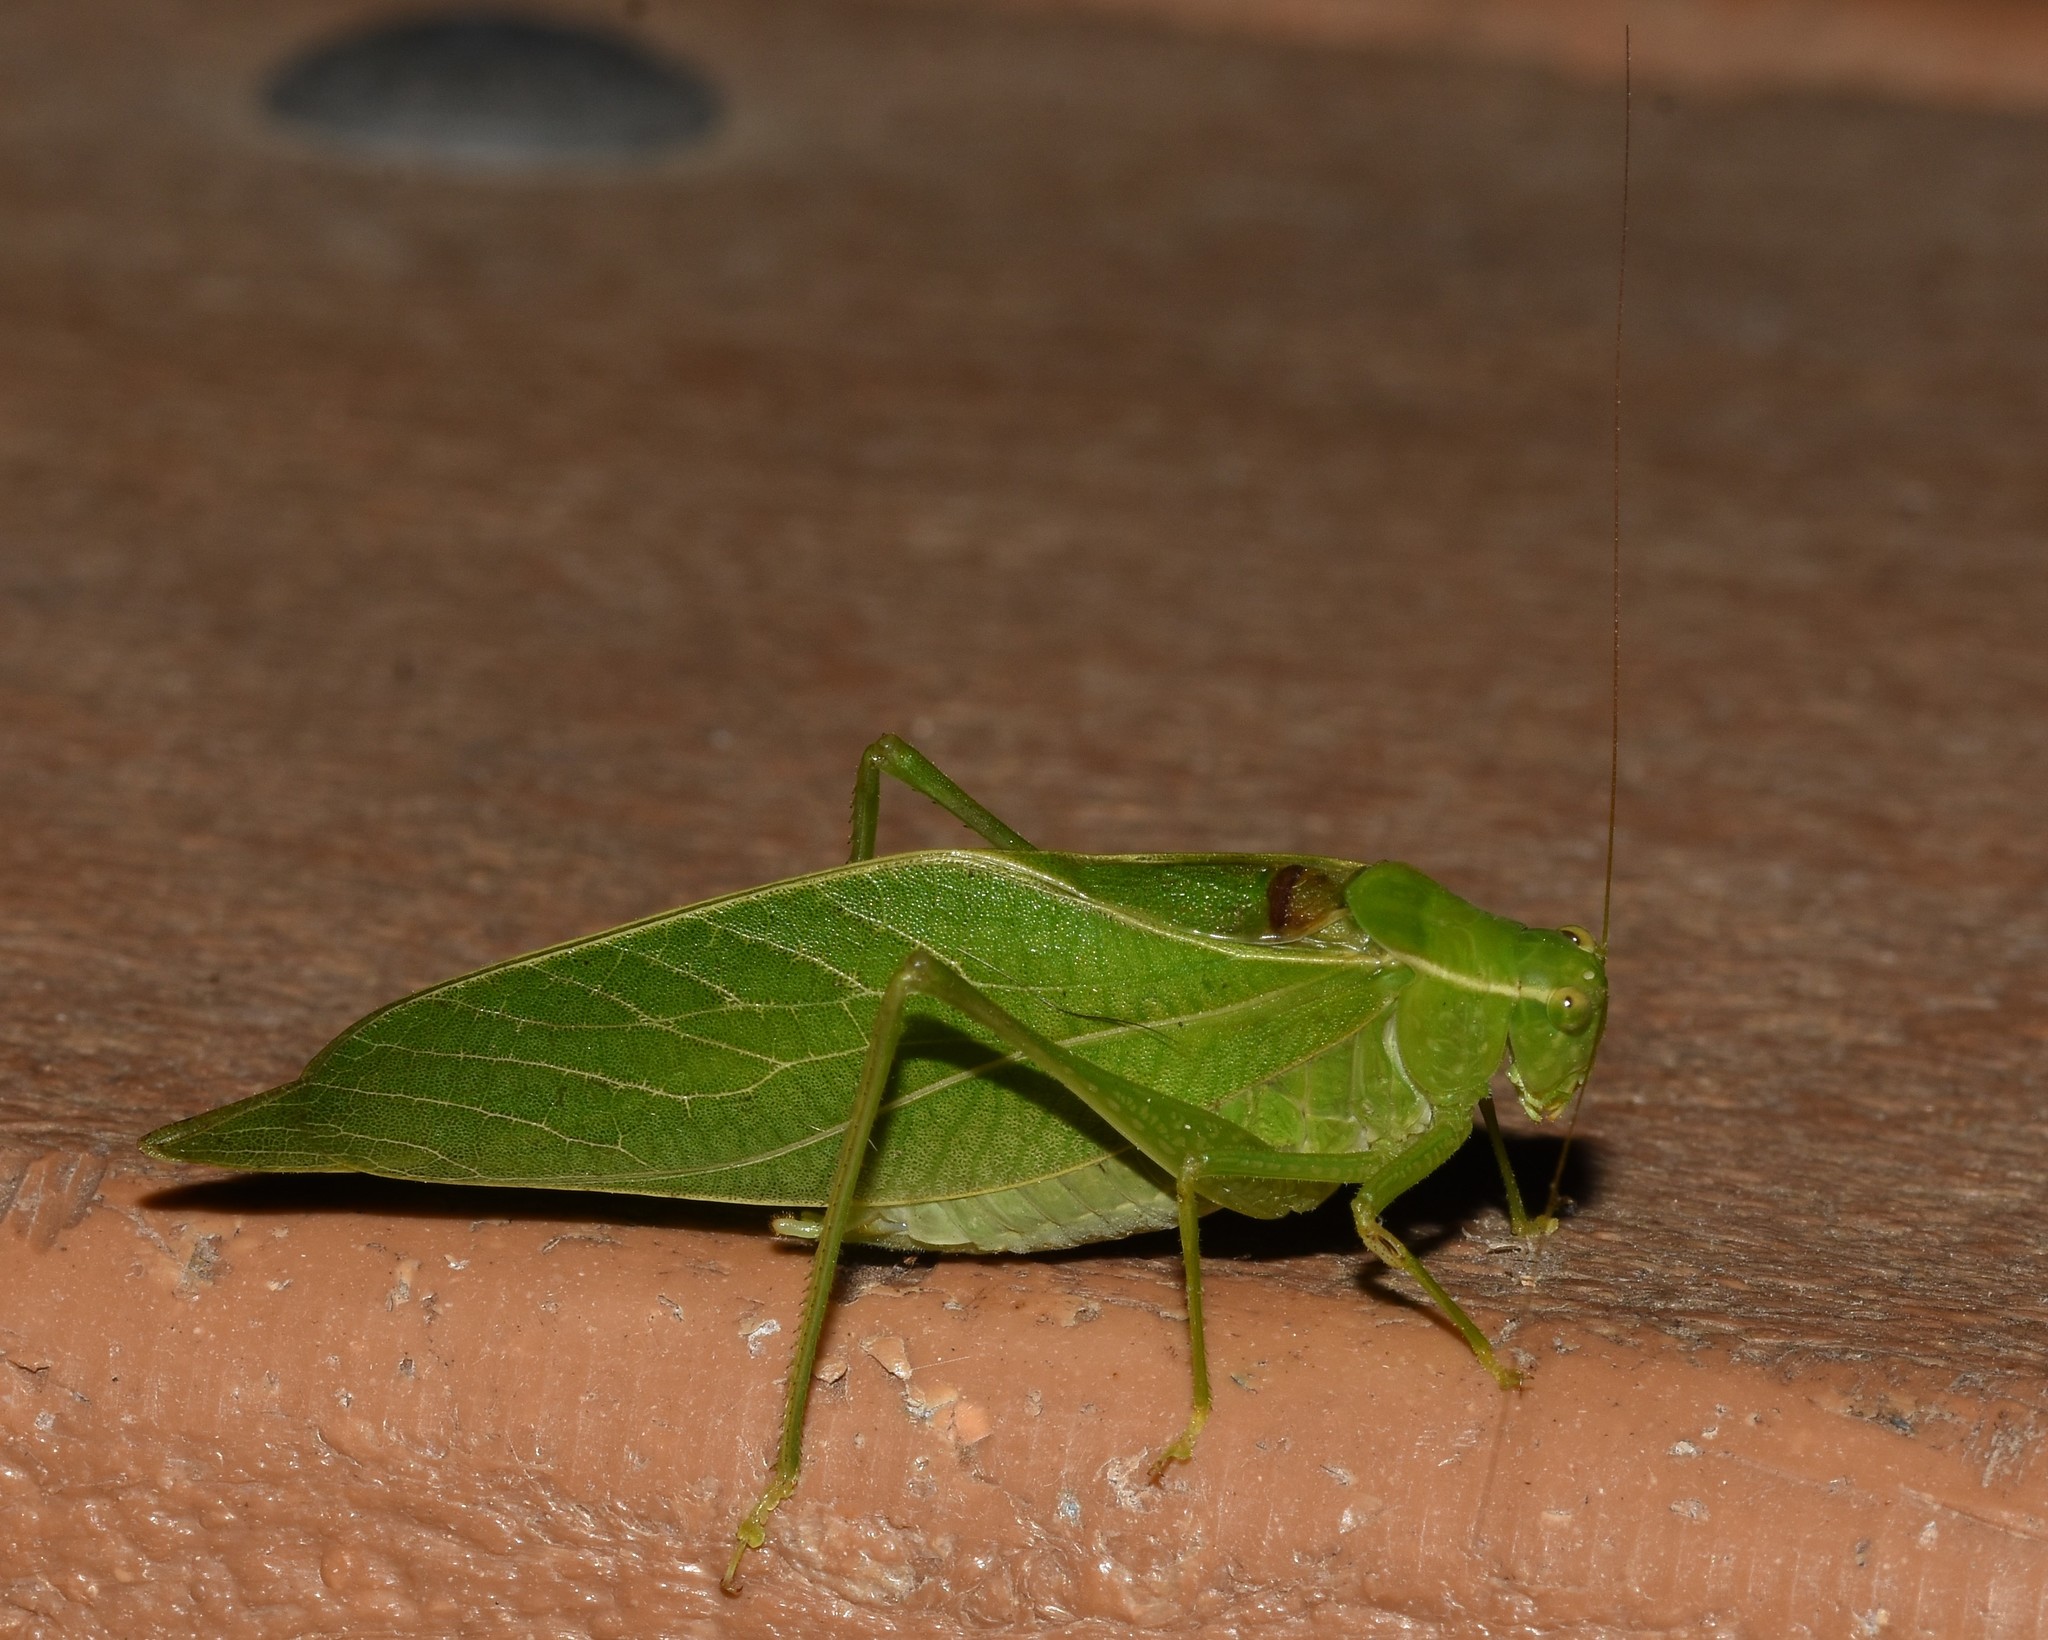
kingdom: Animalia
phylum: Arthropoda
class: Insecta
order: Orthoptera
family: Tettigoniidae
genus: Microcentrum
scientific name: Microcentrum retinerve
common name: Angular-winged katydid
